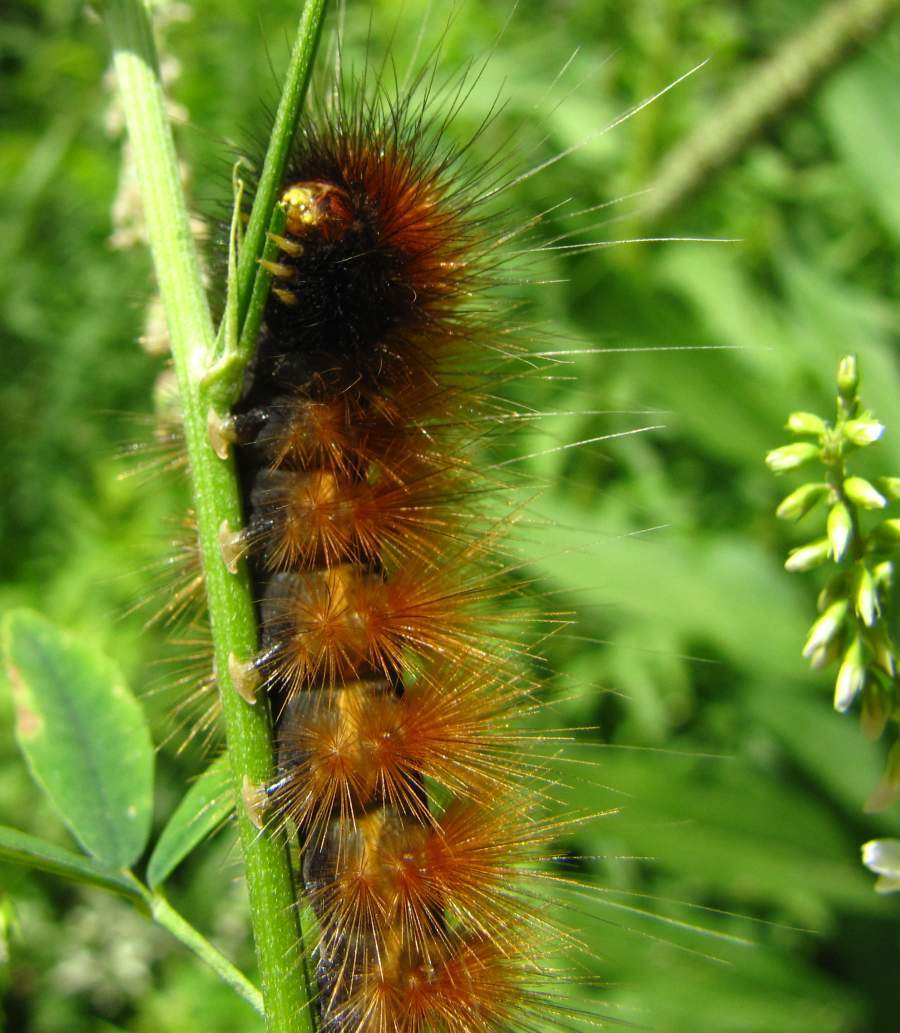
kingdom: Animalia
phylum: Arthropoda
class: Insecta
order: Lepidoptera
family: Erebidae
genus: Spilosoma
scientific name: Spilosoma virginica
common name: Virginia tiger moth
